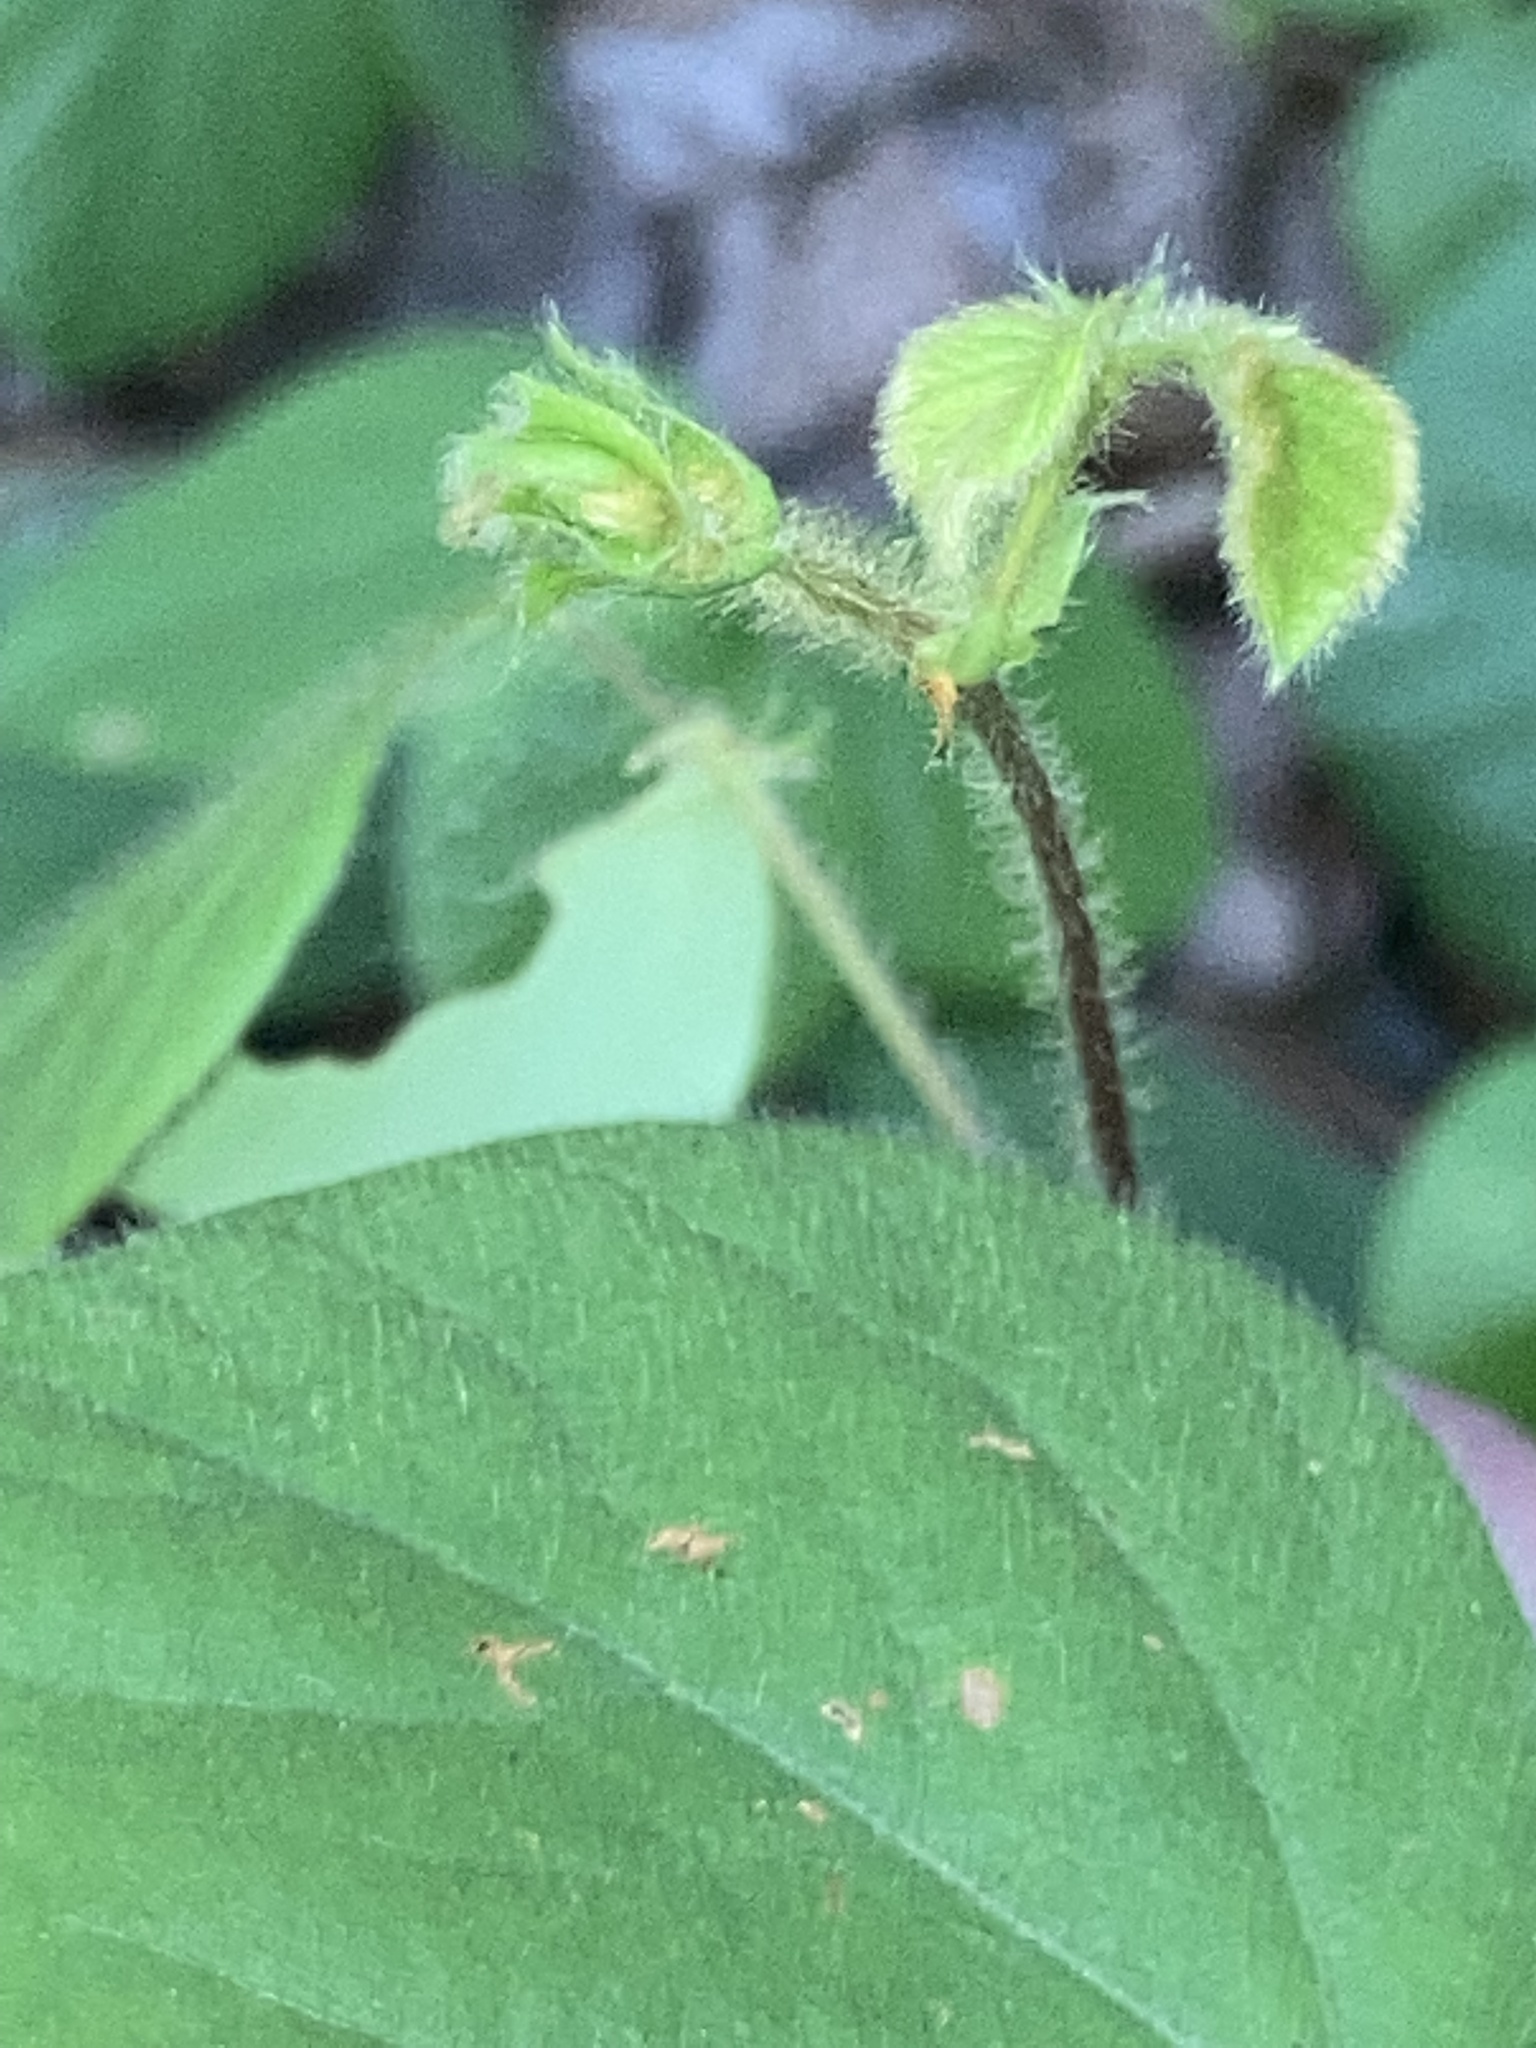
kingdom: Plantae
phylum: Tracheophyta
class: Magnoliopsida
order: Fabales
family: Fabaceae
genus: Desmodium
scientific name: Desmodium rotundifolium
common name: Dollarleaf
